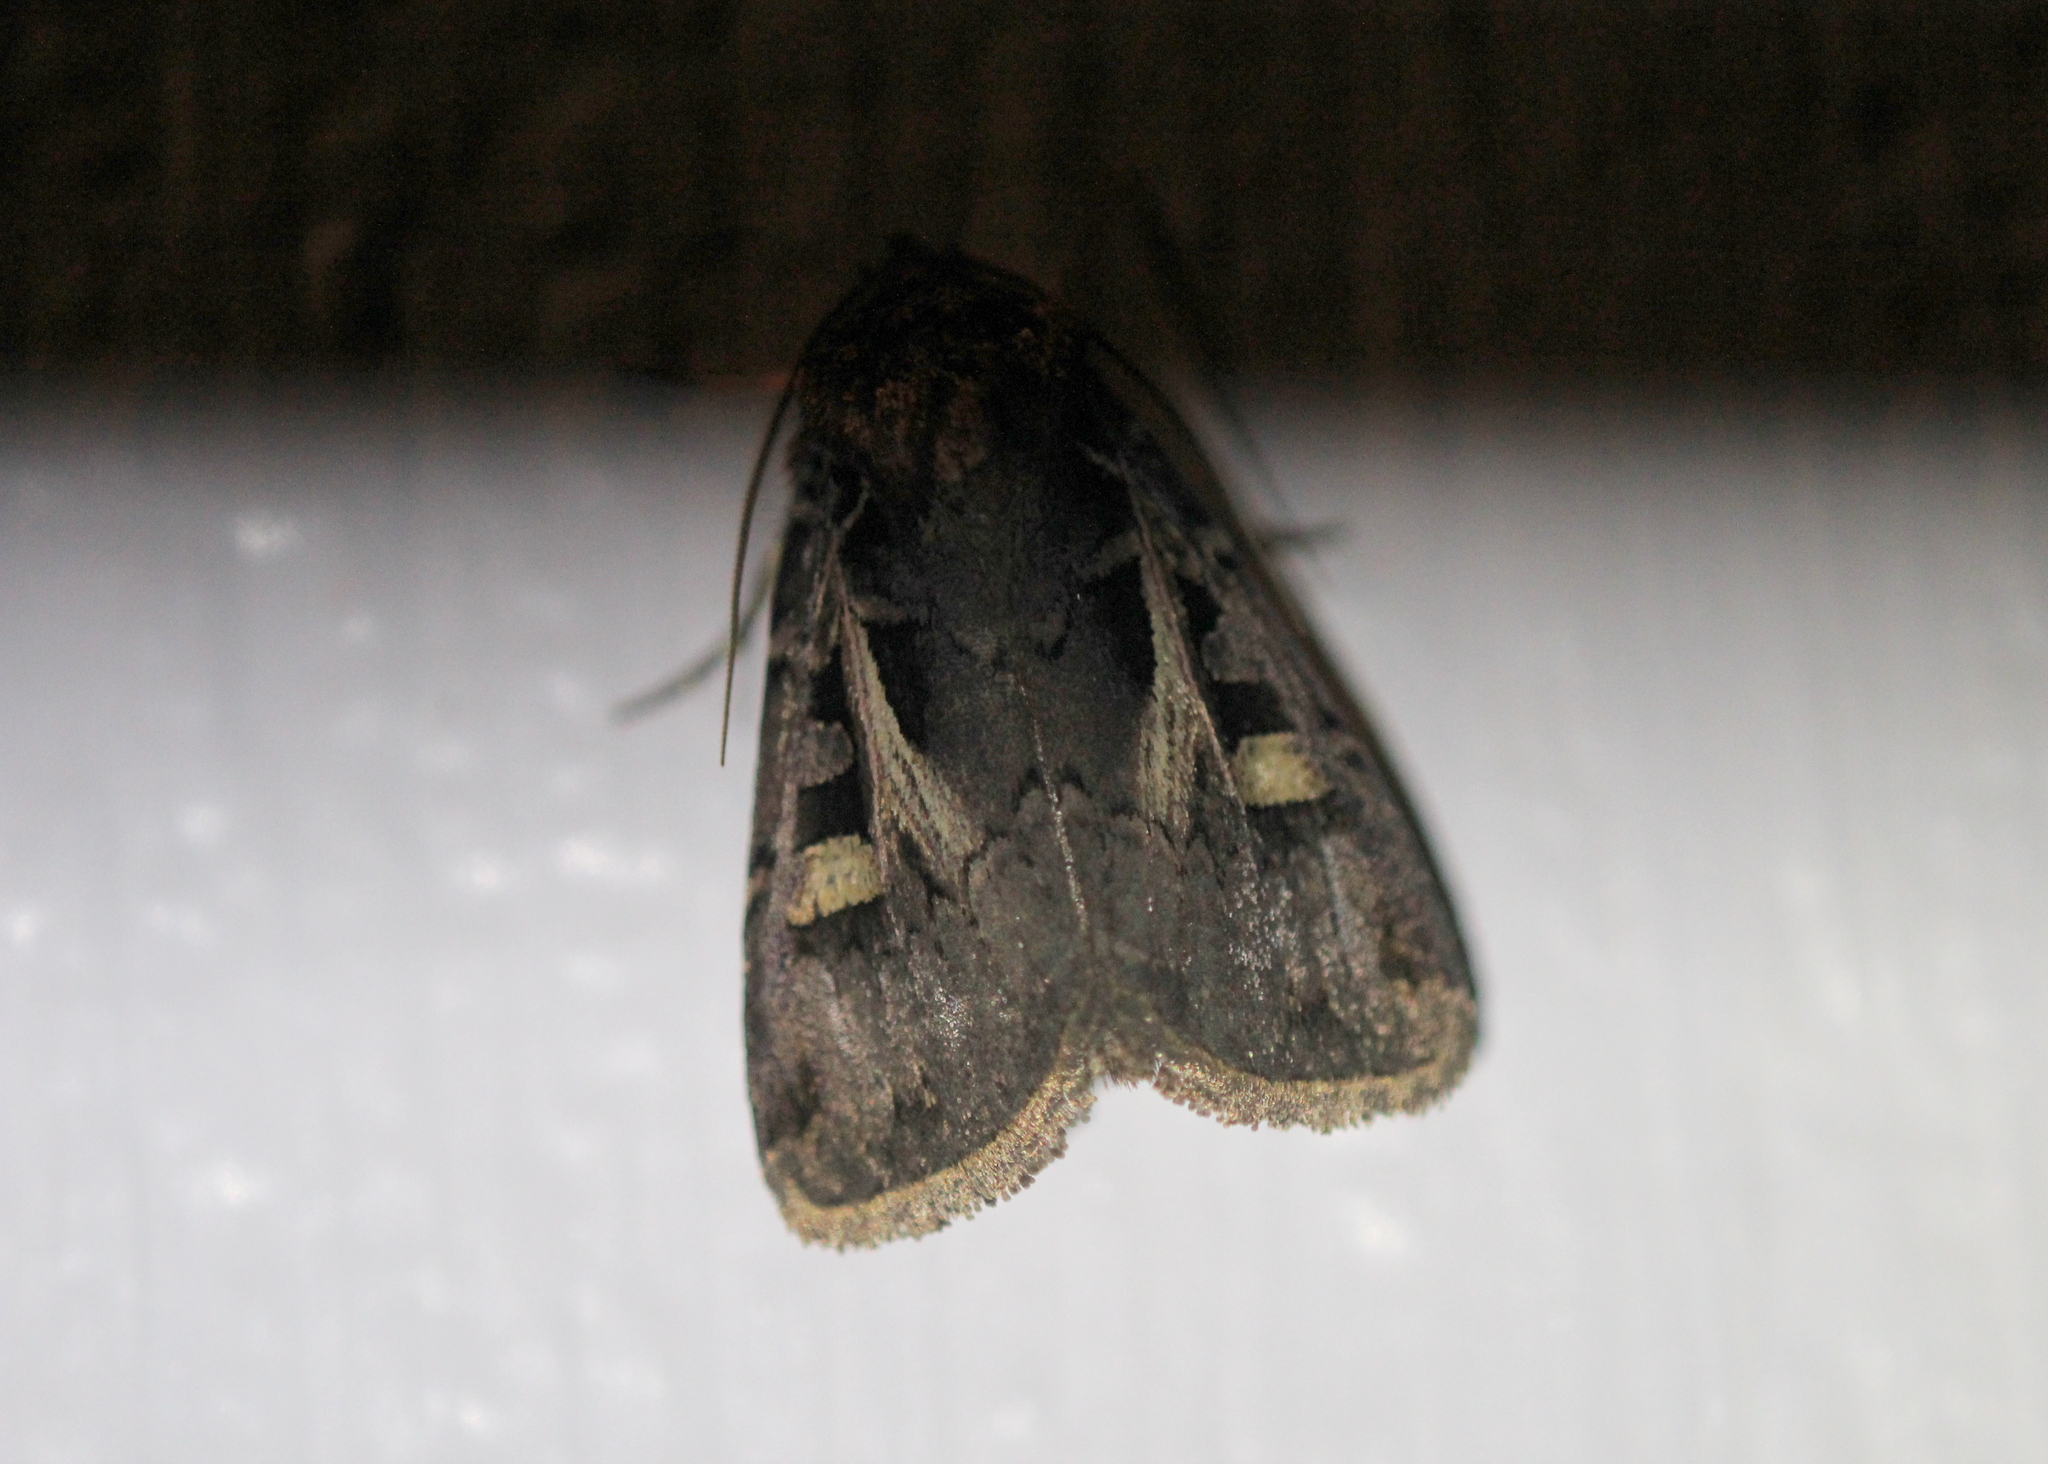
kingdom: Animalia
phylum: Arthropoda
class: Insecta
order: Lepidoptera
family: Noctuidae
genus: Feltia
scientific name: Feltia herilis
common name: Master's dart
